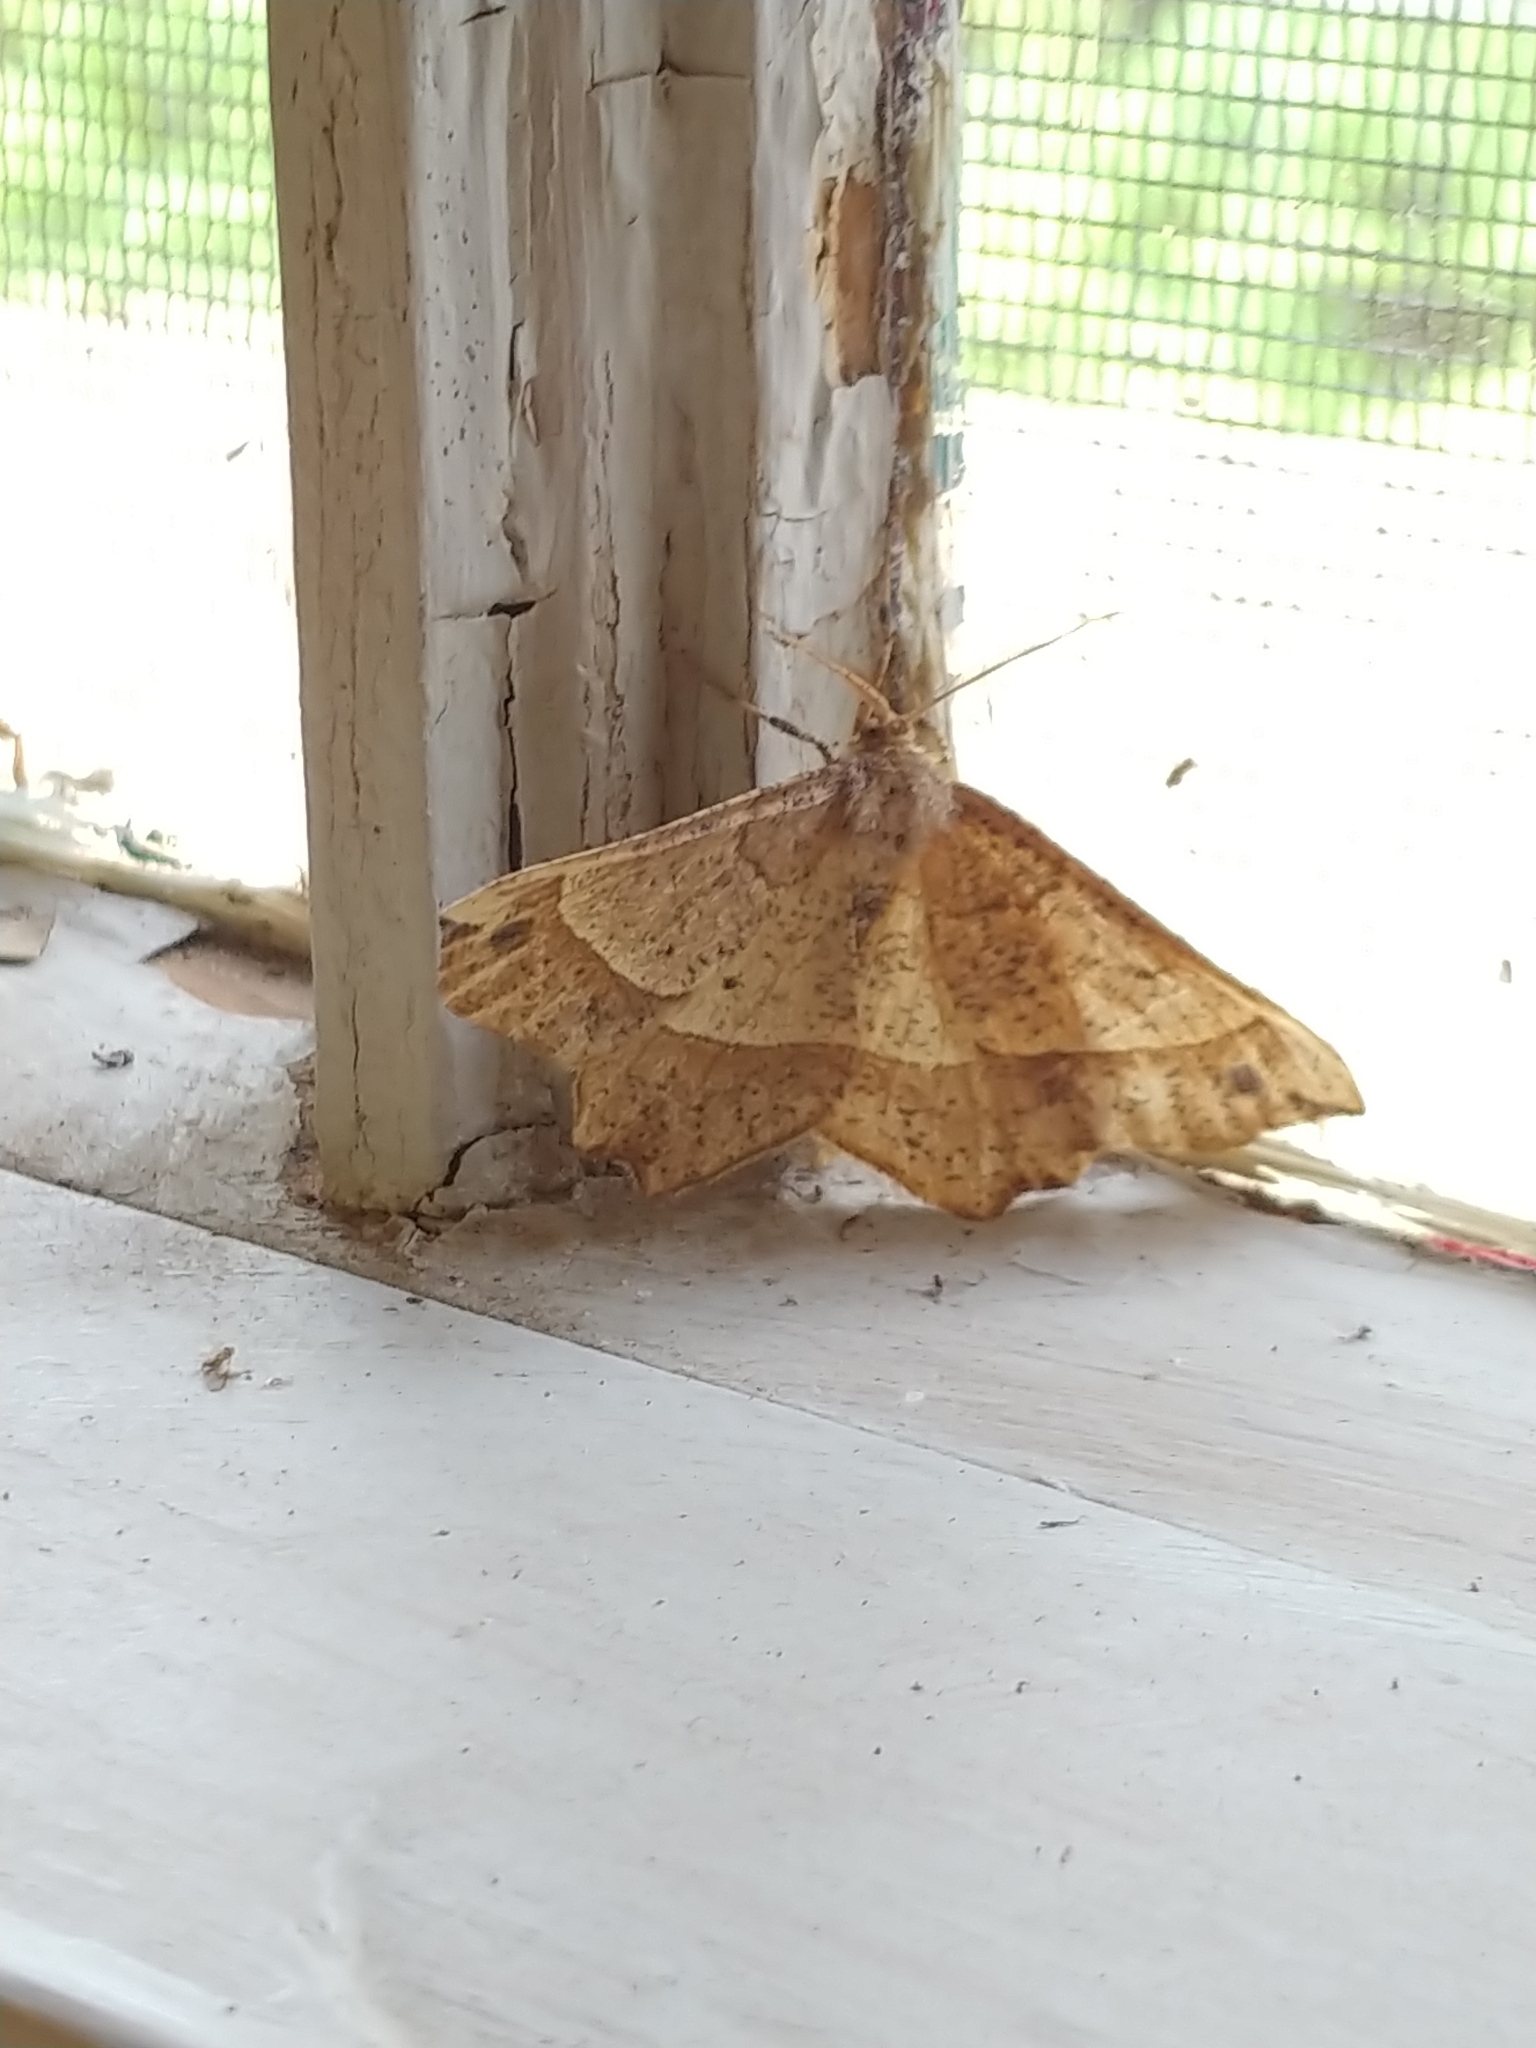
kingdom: Animalia
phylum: Arthropoda
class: Insecta
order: Lepidoptera
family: Geometridae
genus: Euchlaena
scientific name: Euchlaena tigrinaria
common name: Mottled euchlaena moth
